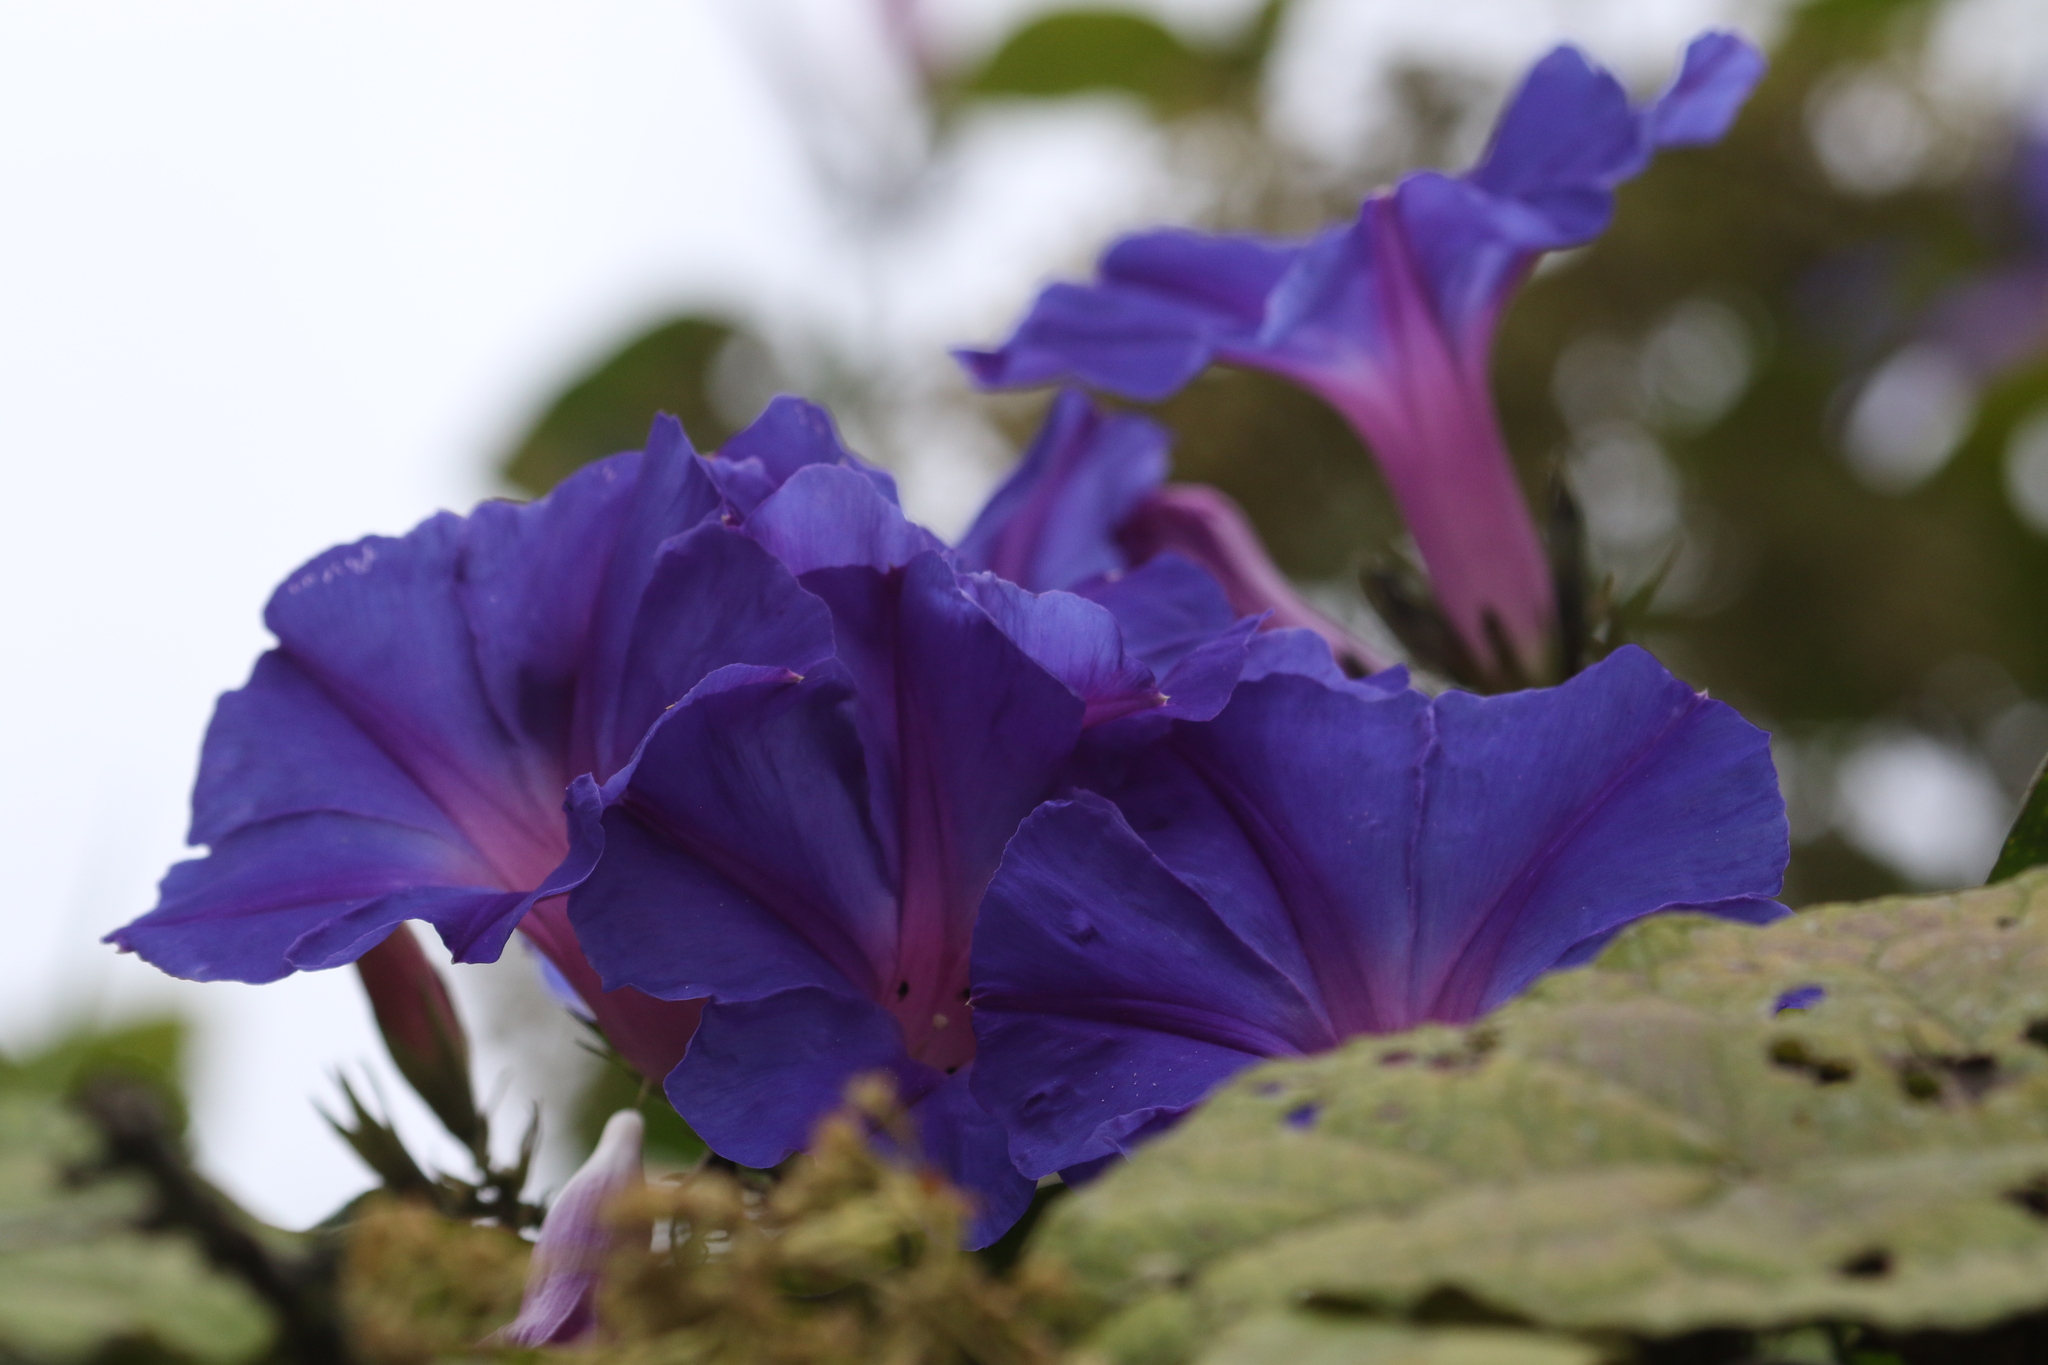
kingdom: Plantae
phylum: Tracheophyta
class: Magnoliopsida
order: Solanales
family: Convolvulaceae
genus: Ipomoea
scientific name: Ipomoea indica
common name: Blue dawnflower
